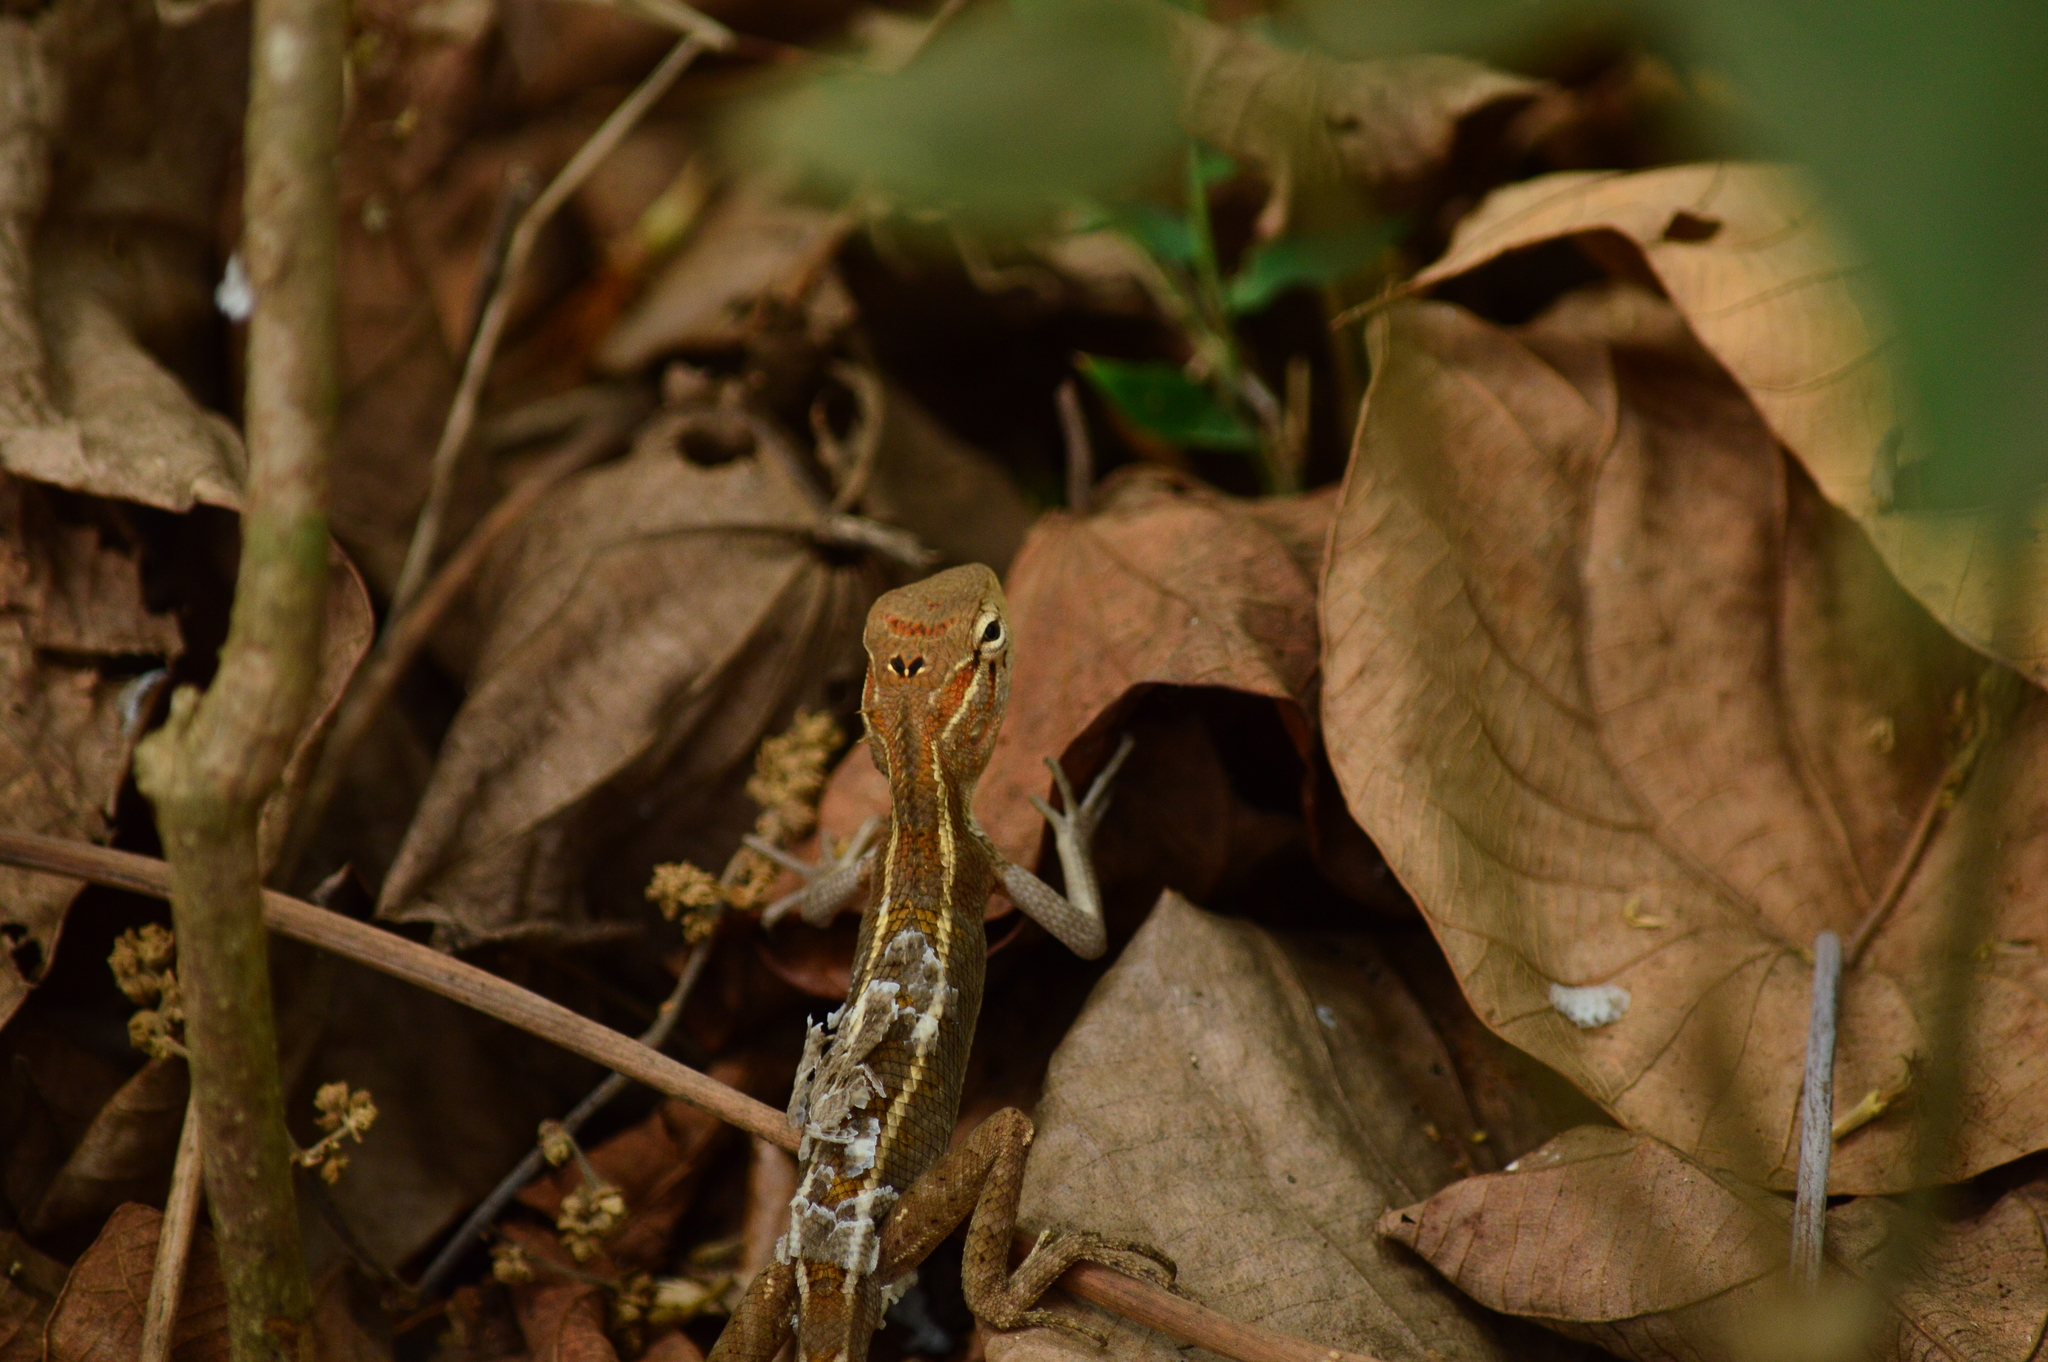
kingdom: Animalia
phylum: Chordata
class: Squamata
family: Agamidae
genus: Calotes
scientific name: Calotes versicolor
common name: Oriental garden lizard
